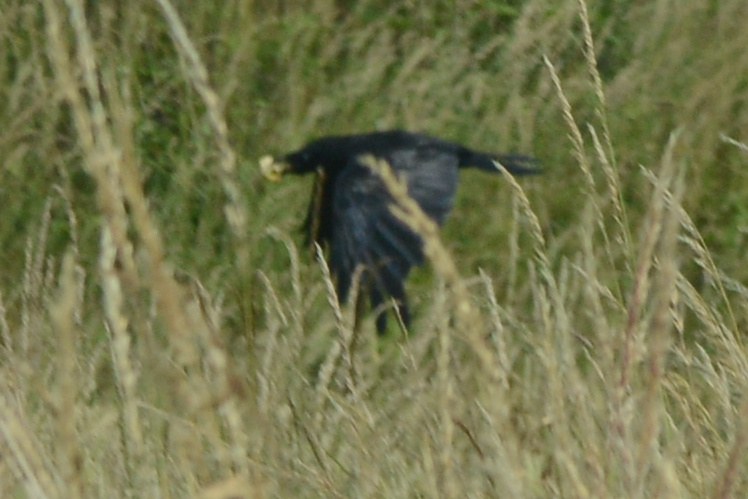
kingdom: Animalia
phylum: Chordata
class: Aves
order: Passeriformes
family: Corvidae
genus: Corvus
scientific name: Corvus tasmanicus
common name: Forest raven
